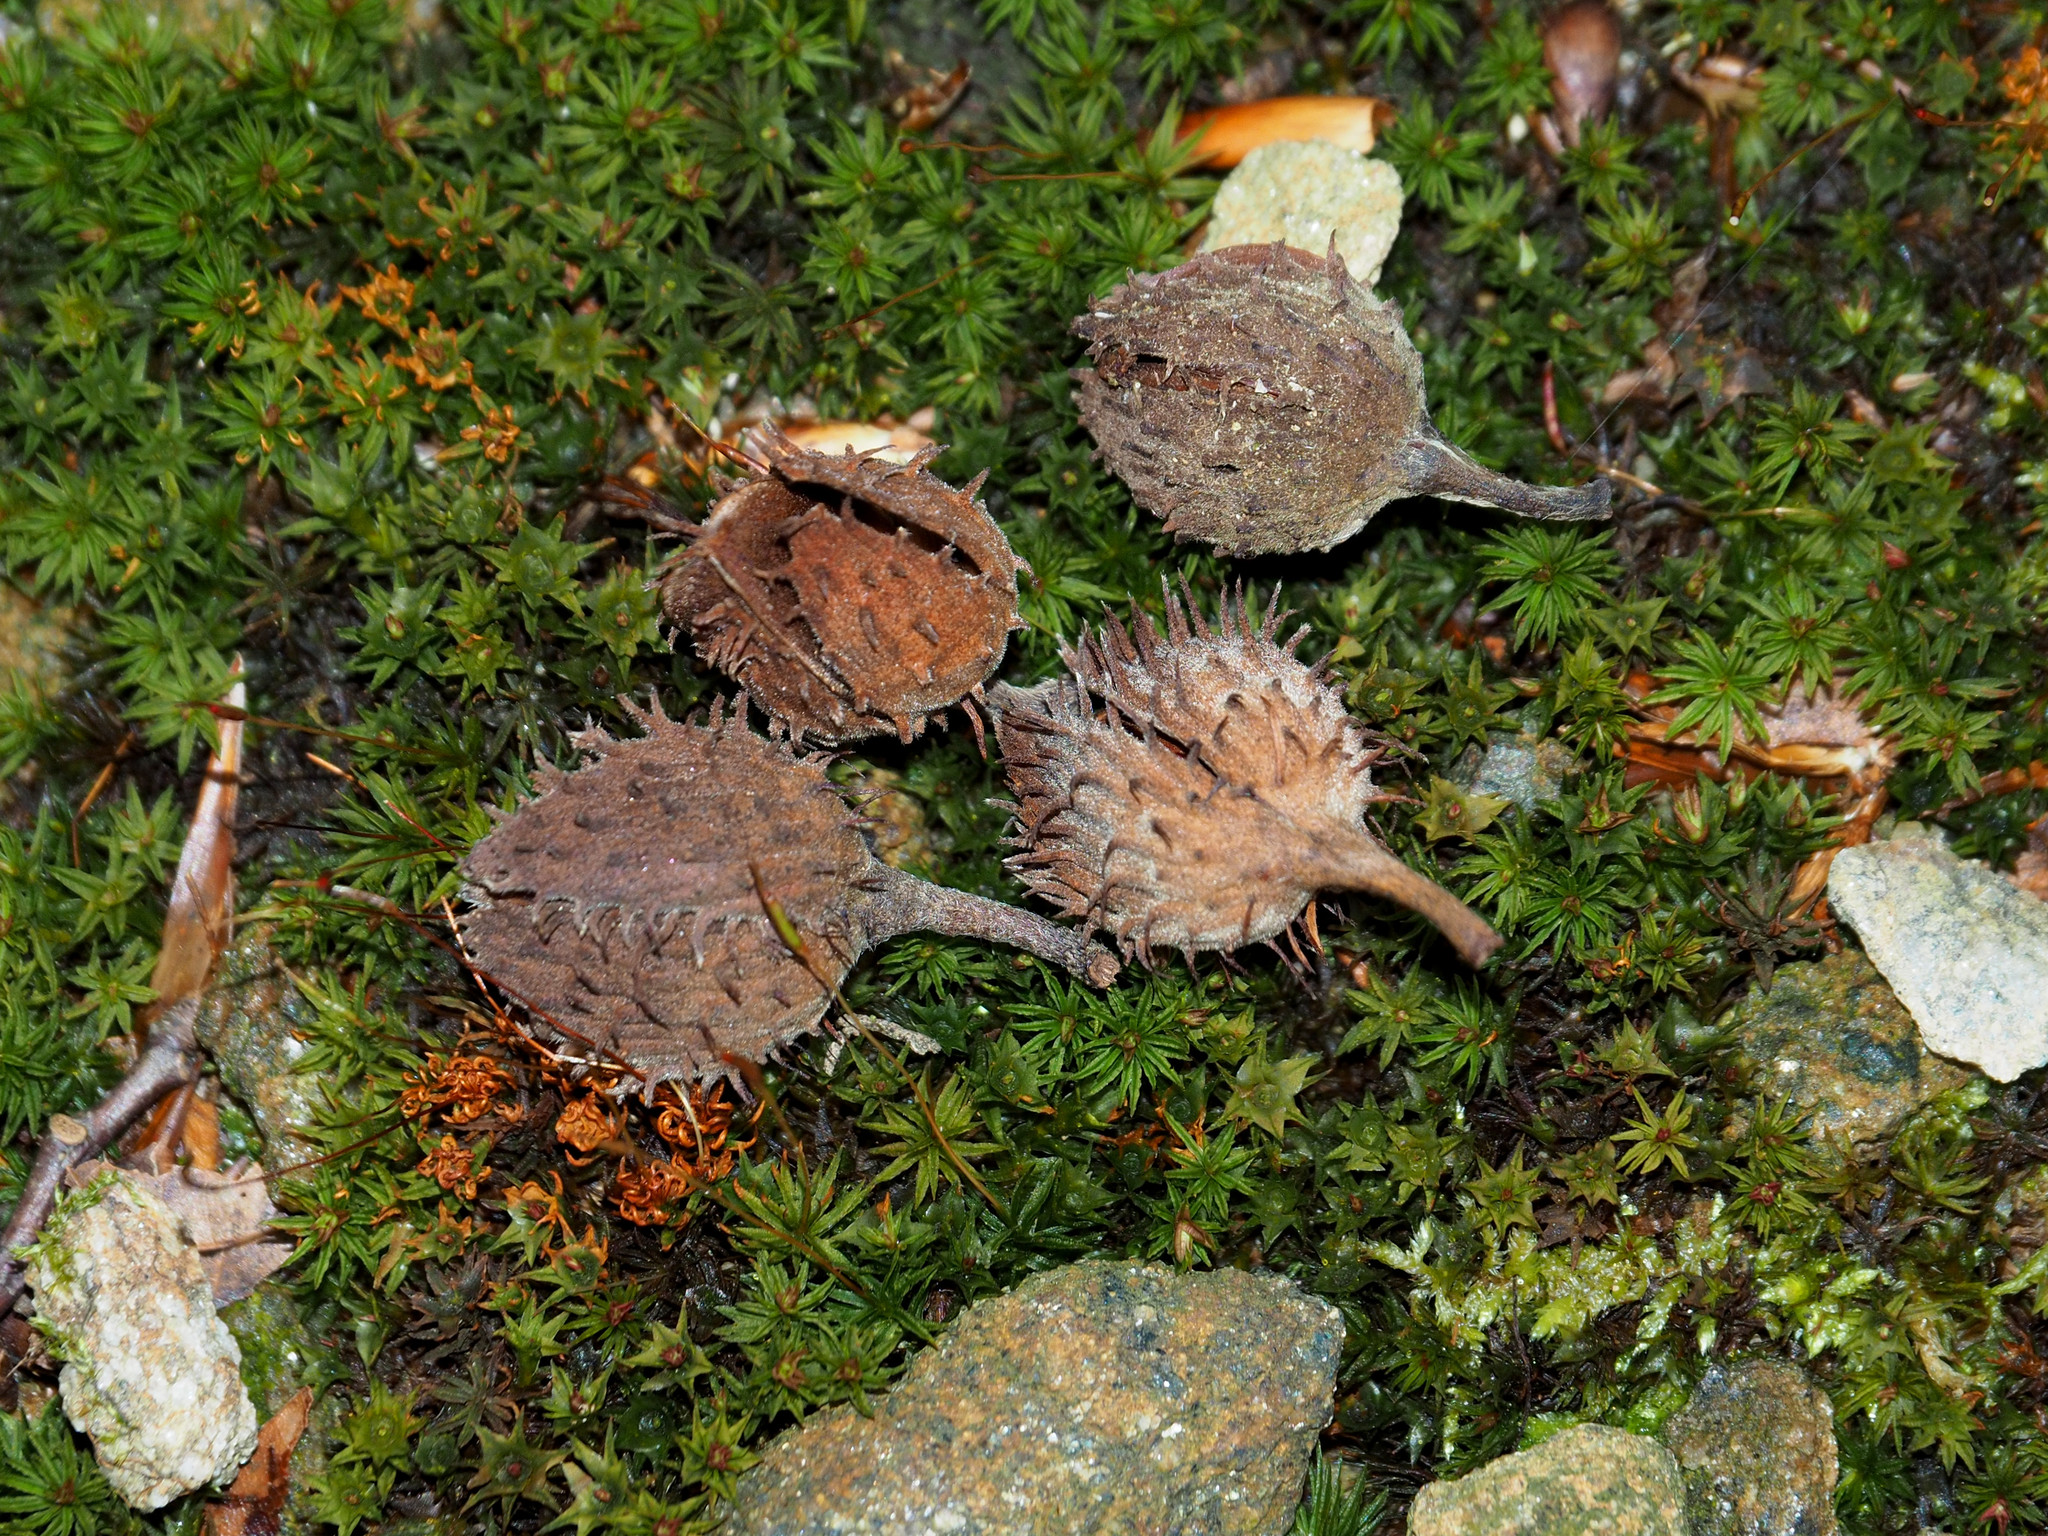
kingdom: Plantae
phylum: Tracheophyta
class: Magnoliopsida
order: Fagales
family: Fagaceae
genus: Fagus
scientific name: Fagus grandifolia
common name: American beech
